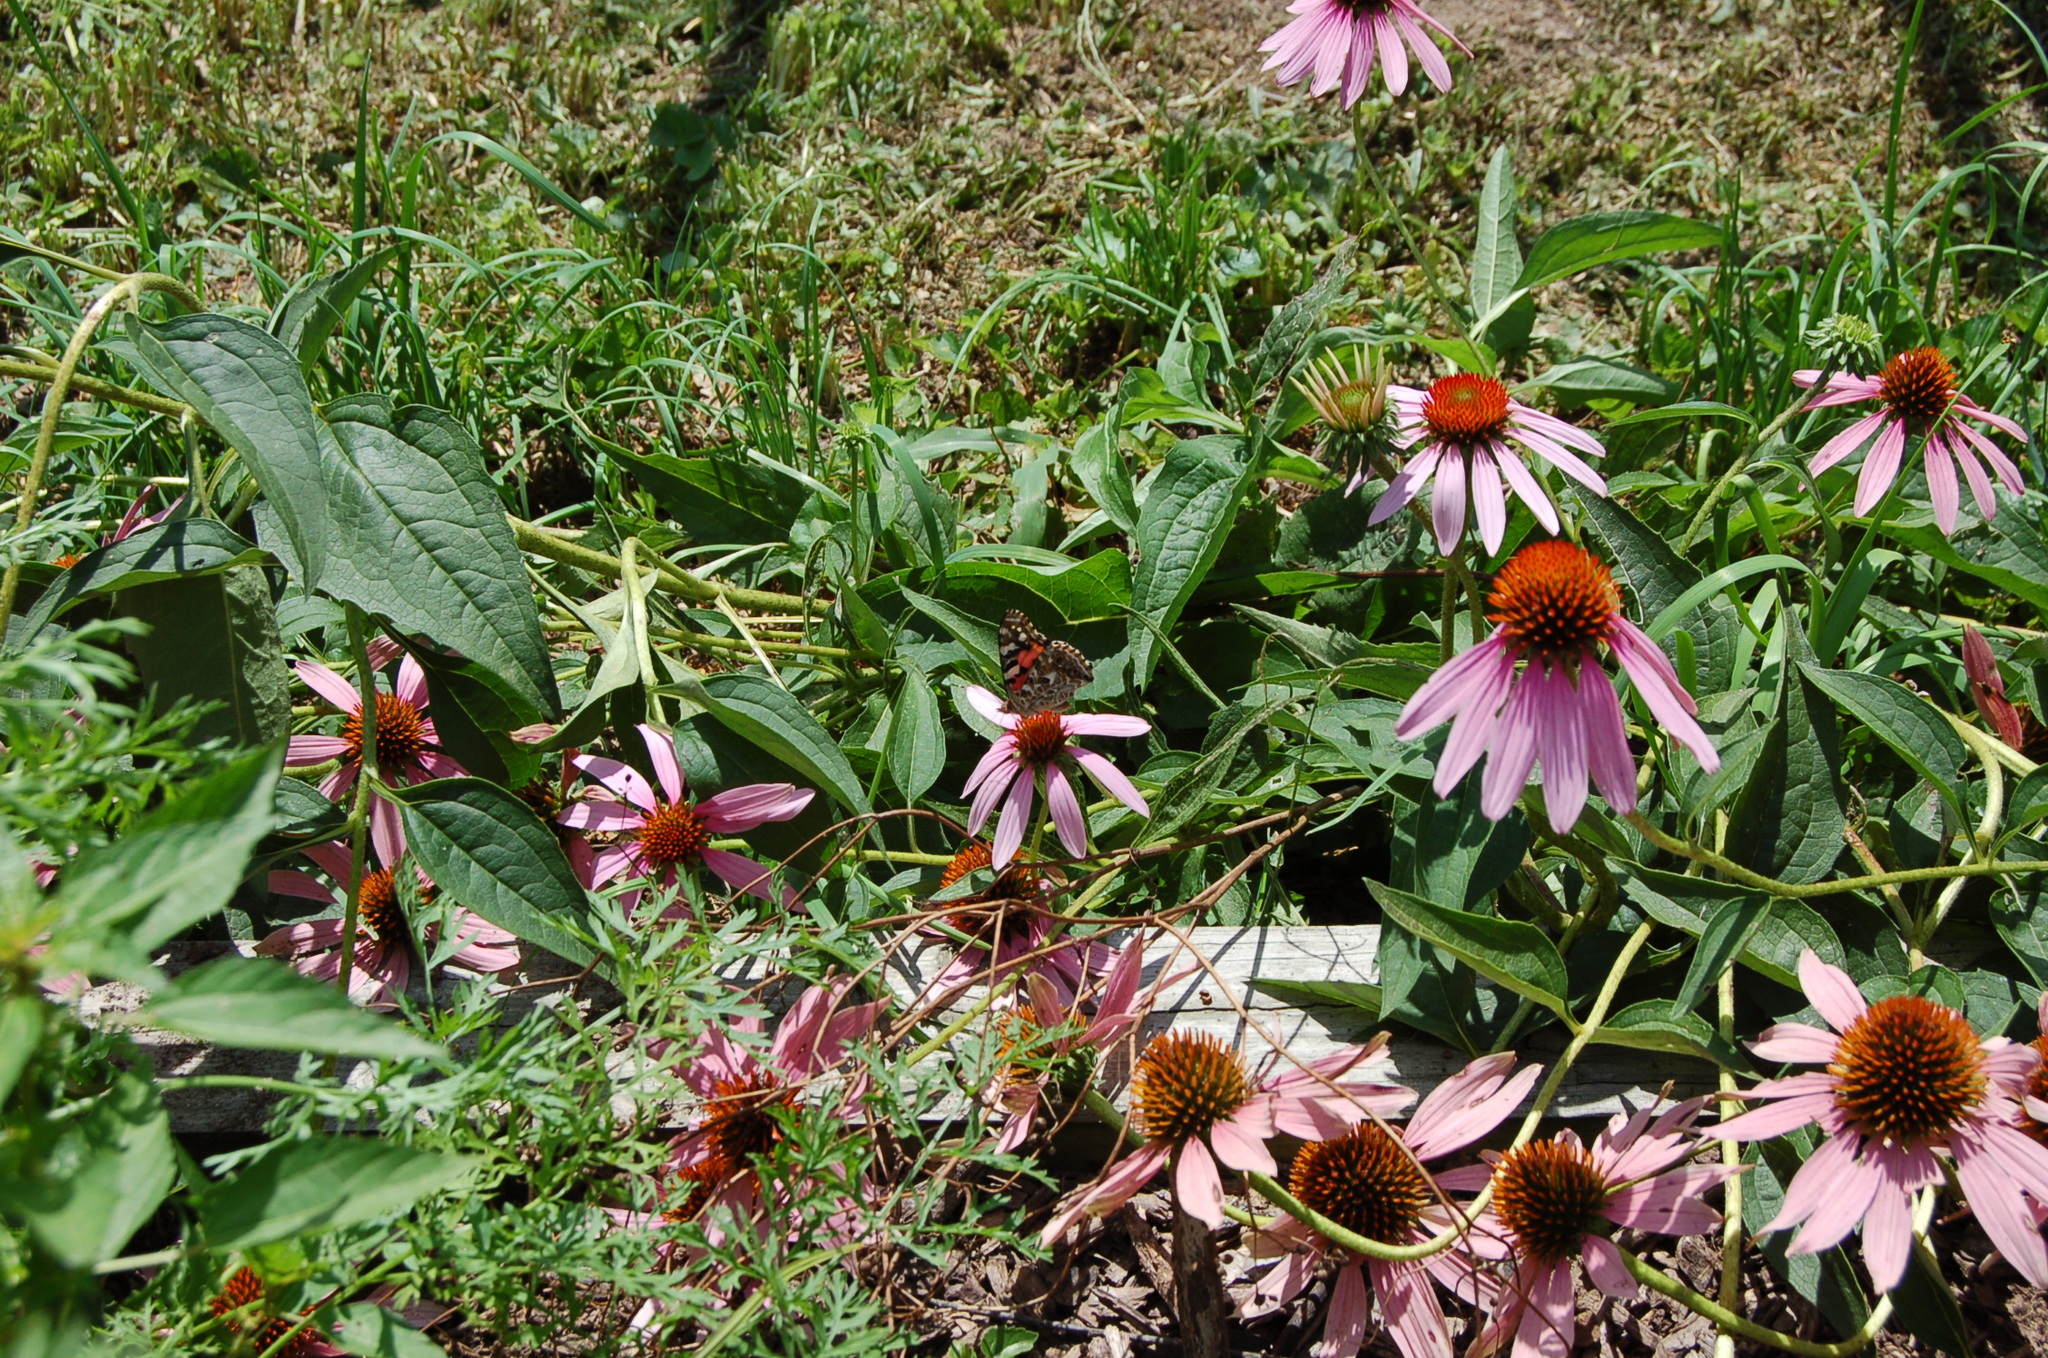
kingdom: Animalia
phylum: Arthropoda
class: Insecta
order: Lepidoptera
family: Nymphalidae
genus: Vanessa
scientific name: Vanessa cardui
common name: Painted lady
